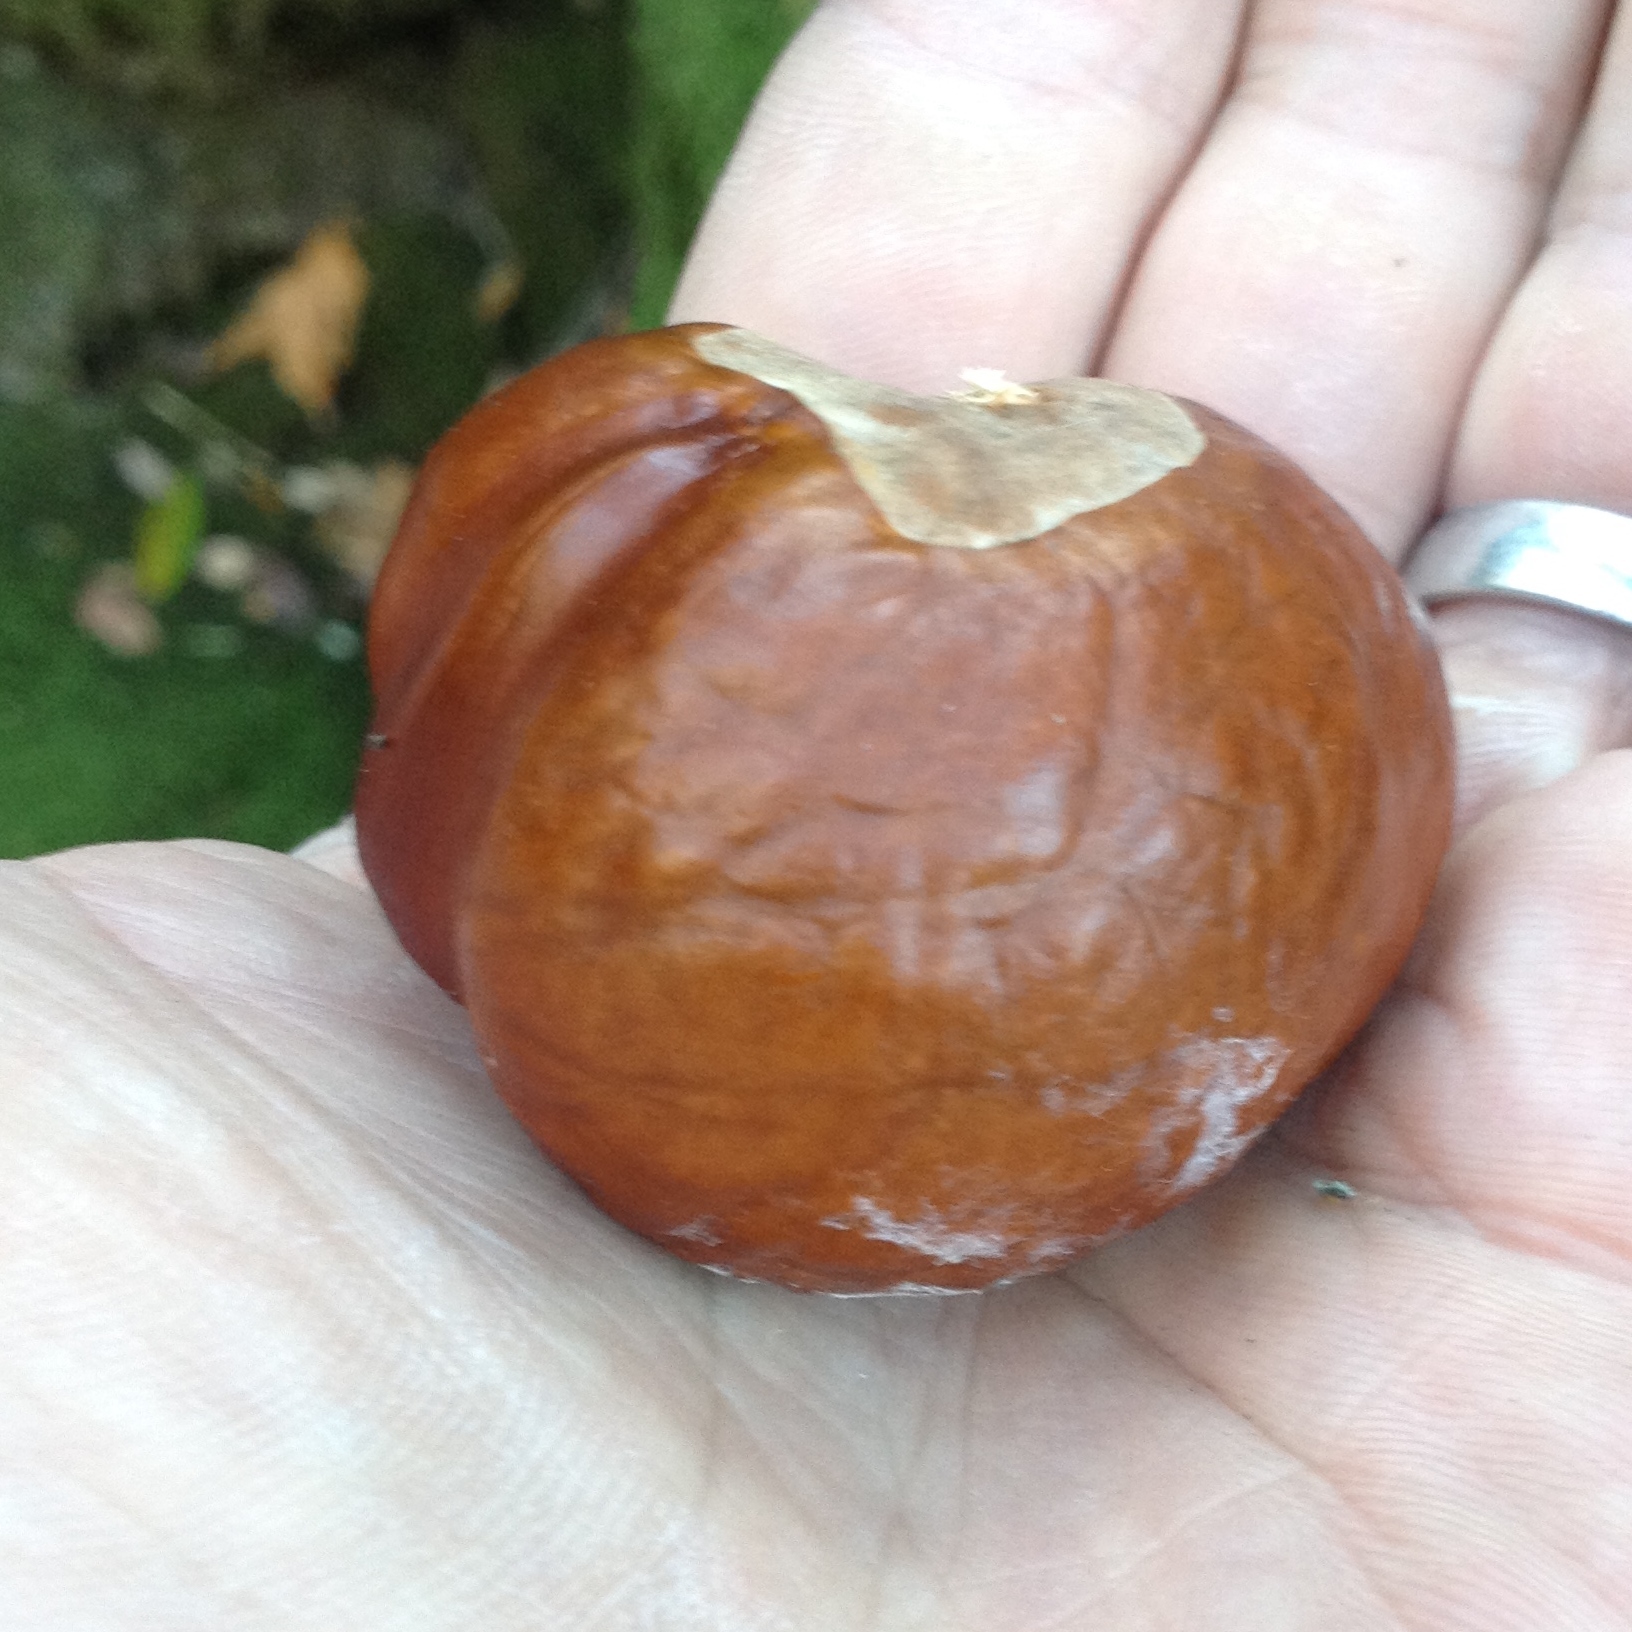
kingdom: Plantae
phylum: Tracheophyta
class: Magnoliopsida
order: Sapindales
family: Sapindaceae
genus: Aesculus
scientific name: Aesculus californica
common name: California buckeye
